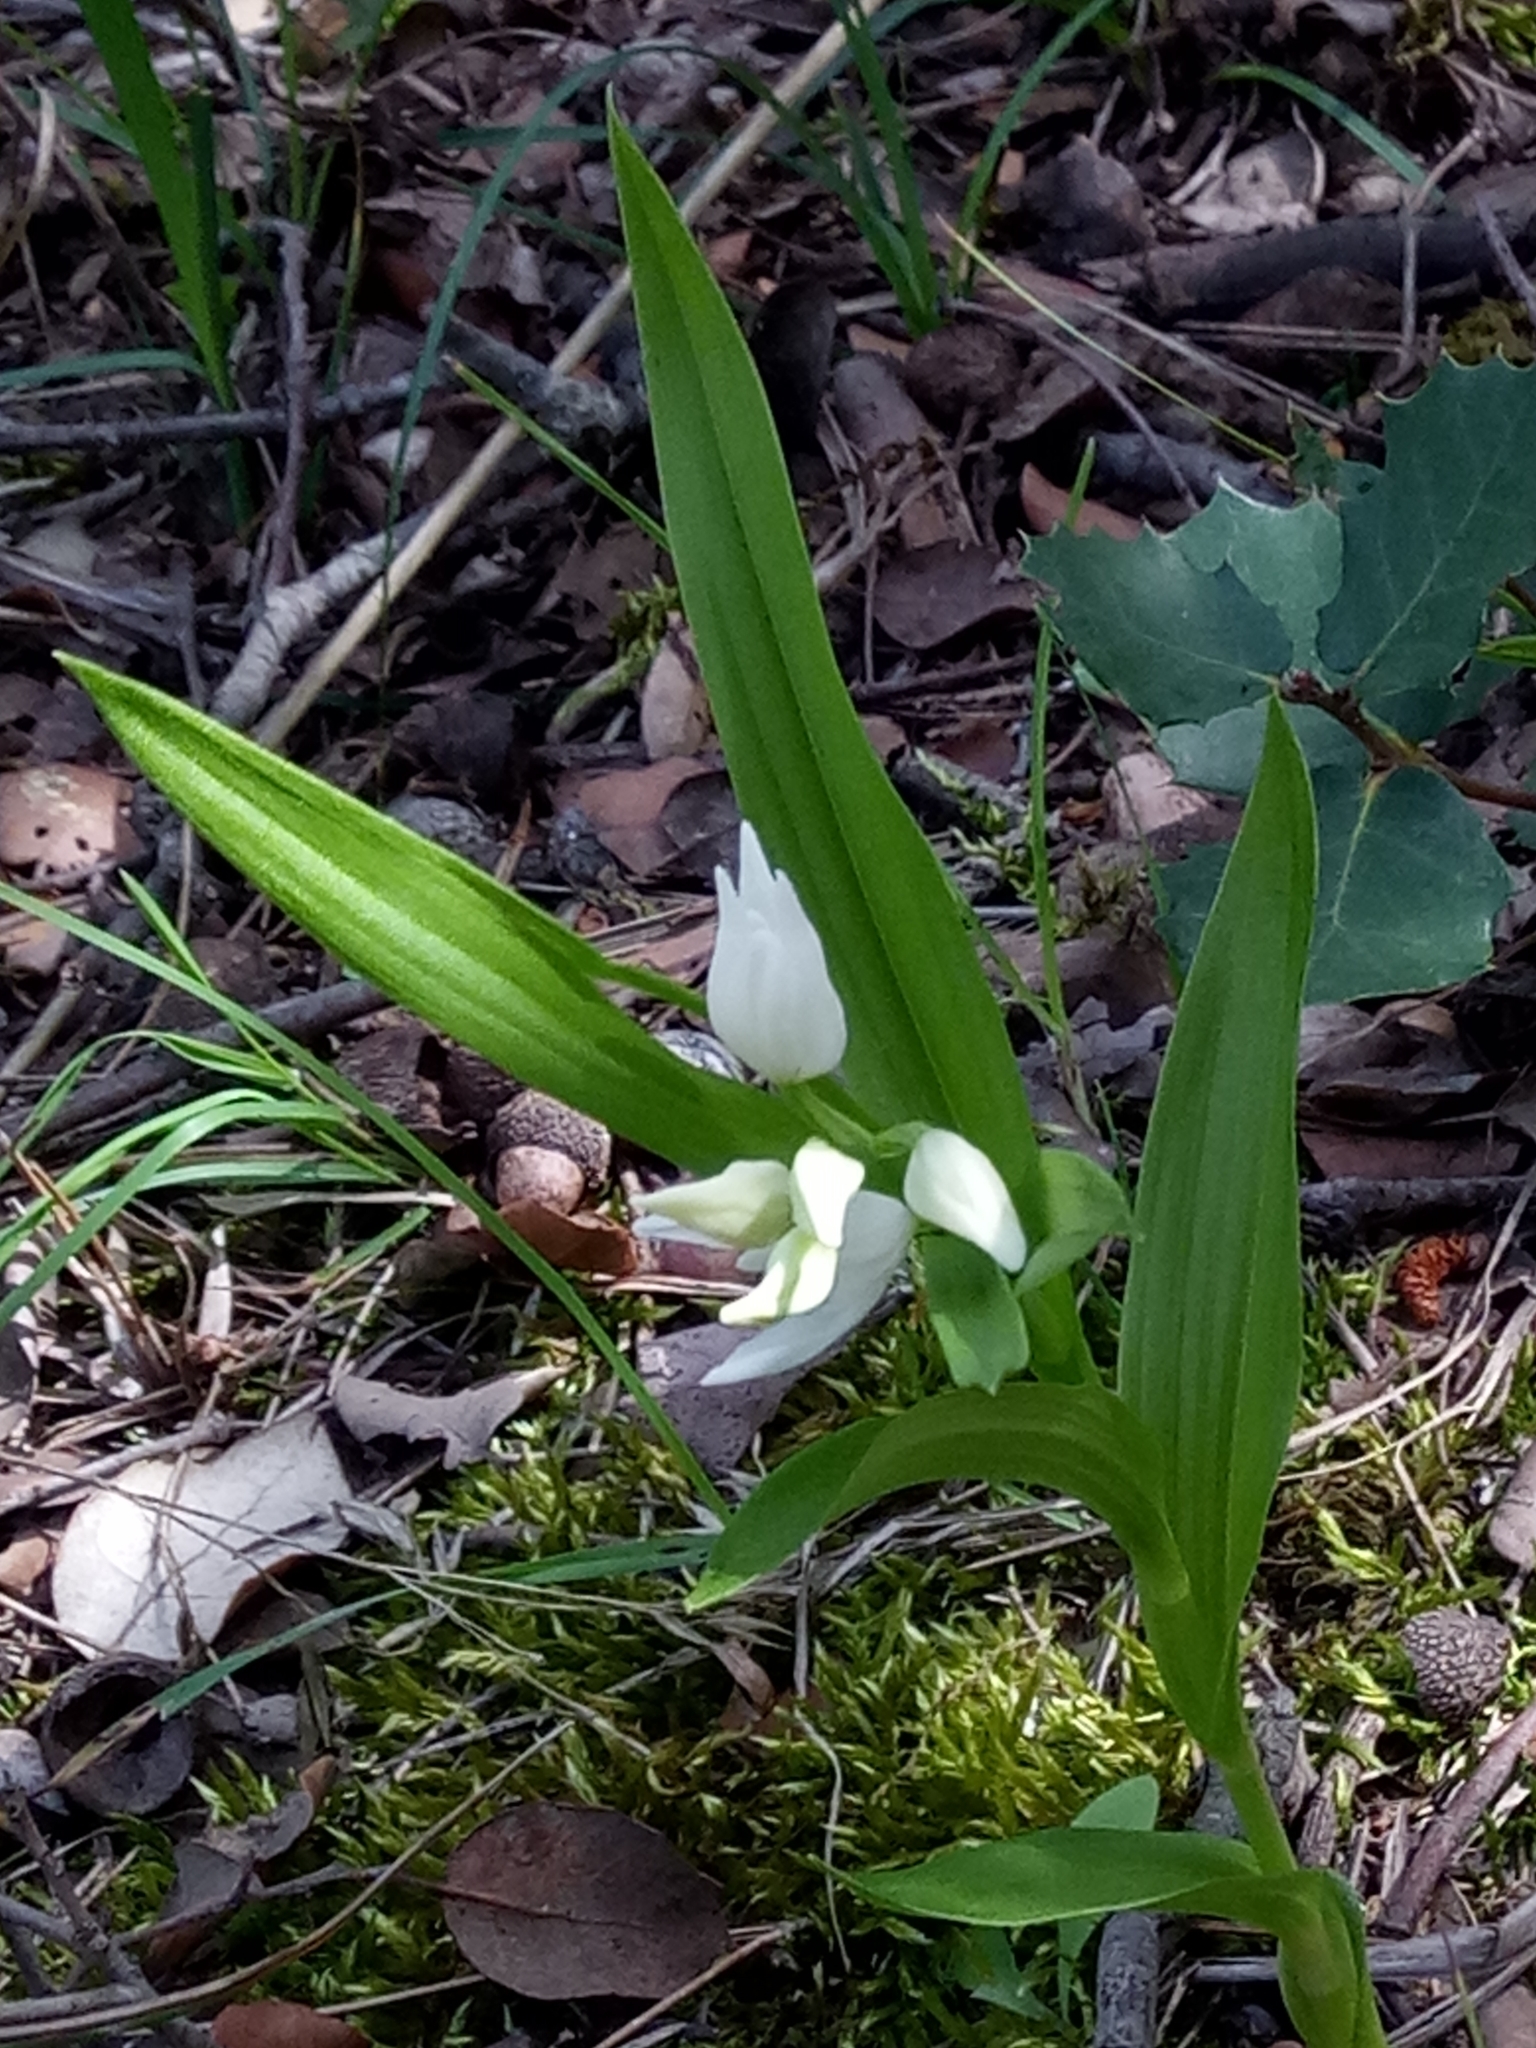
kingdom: Plantae
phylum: Tracheophyta
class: Liliopsida
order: Asparagales
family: Orchidaceae
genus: Cephalanthera
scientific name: Cephalanthera longifolia
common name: Narrow-leaved helleborine
